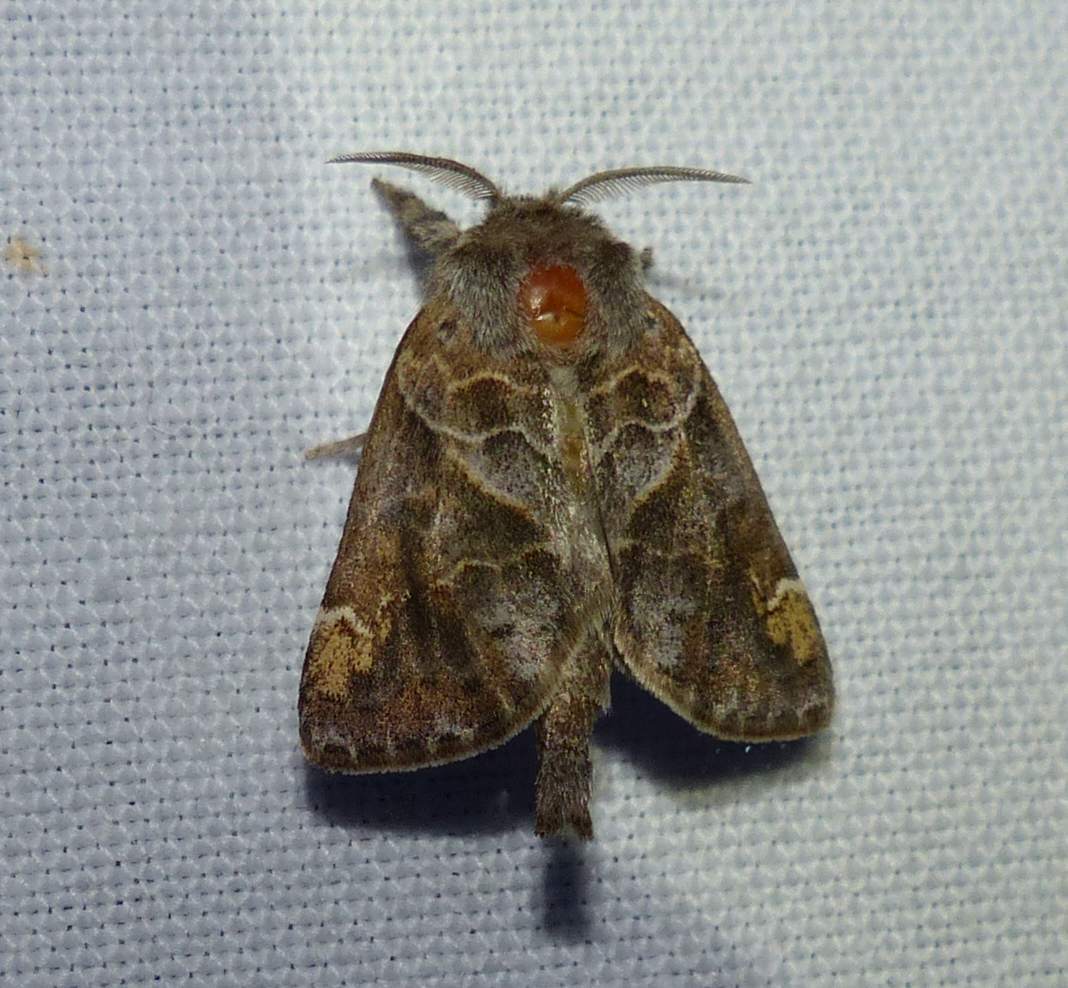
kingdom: Animalia
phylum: Arthropoda
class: Insecta
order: Lepidoptera
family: Notodontidae
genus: Clostera
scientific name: Clostera strigosa
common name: Striped chocolate-tip moth
